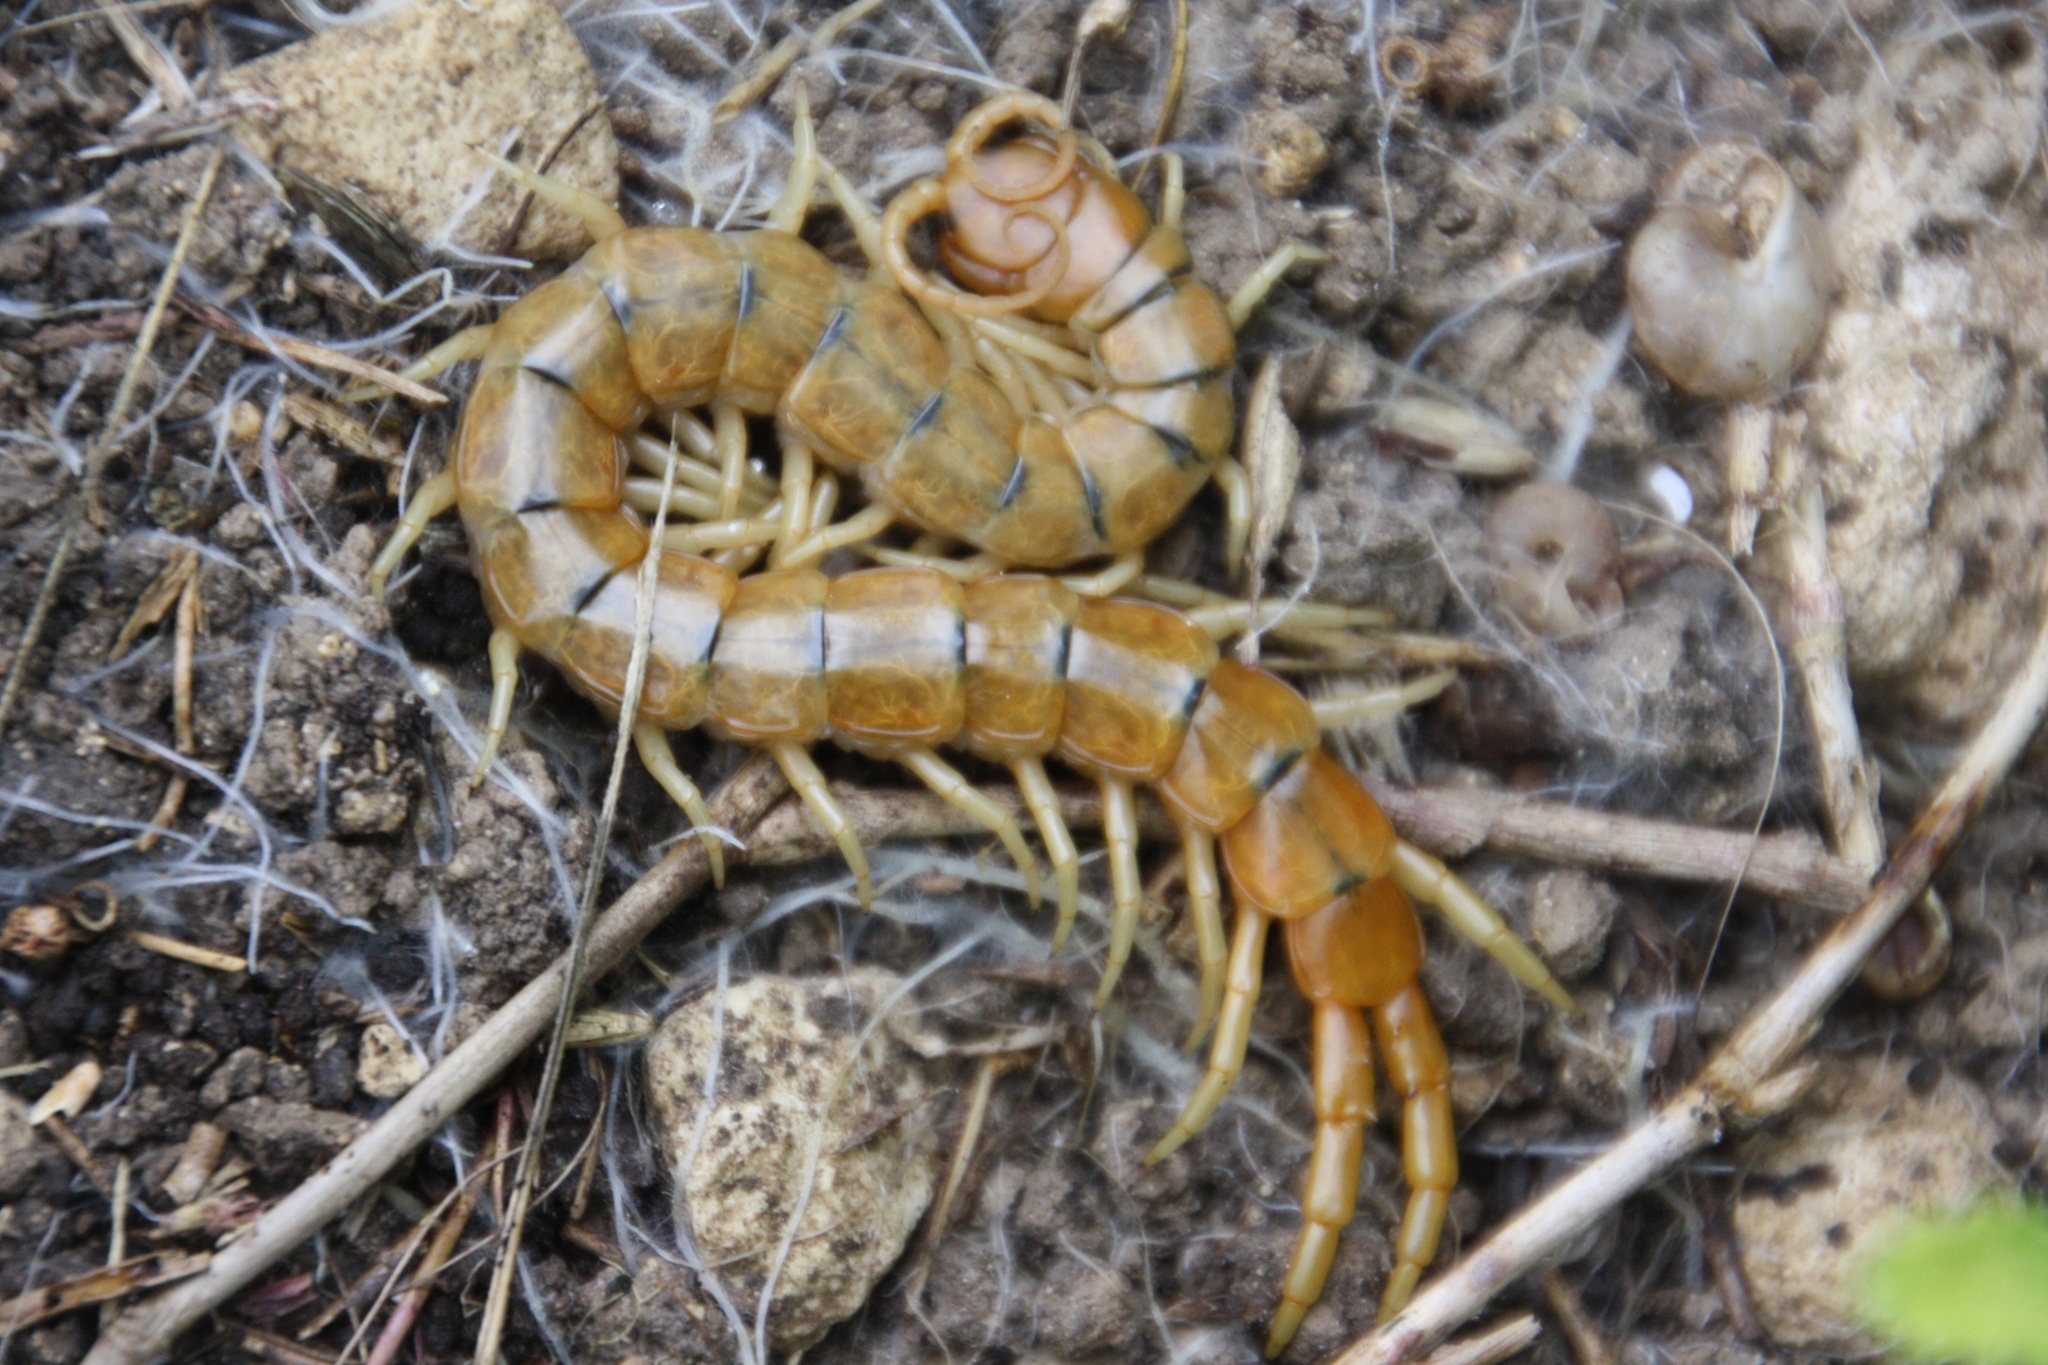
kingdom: Animalia
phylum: Arthropoda
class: Chilopoda
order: Scolopendromorpha
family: Scolopendridae
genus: Scolopendra
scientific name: Scolopendra cingulata
